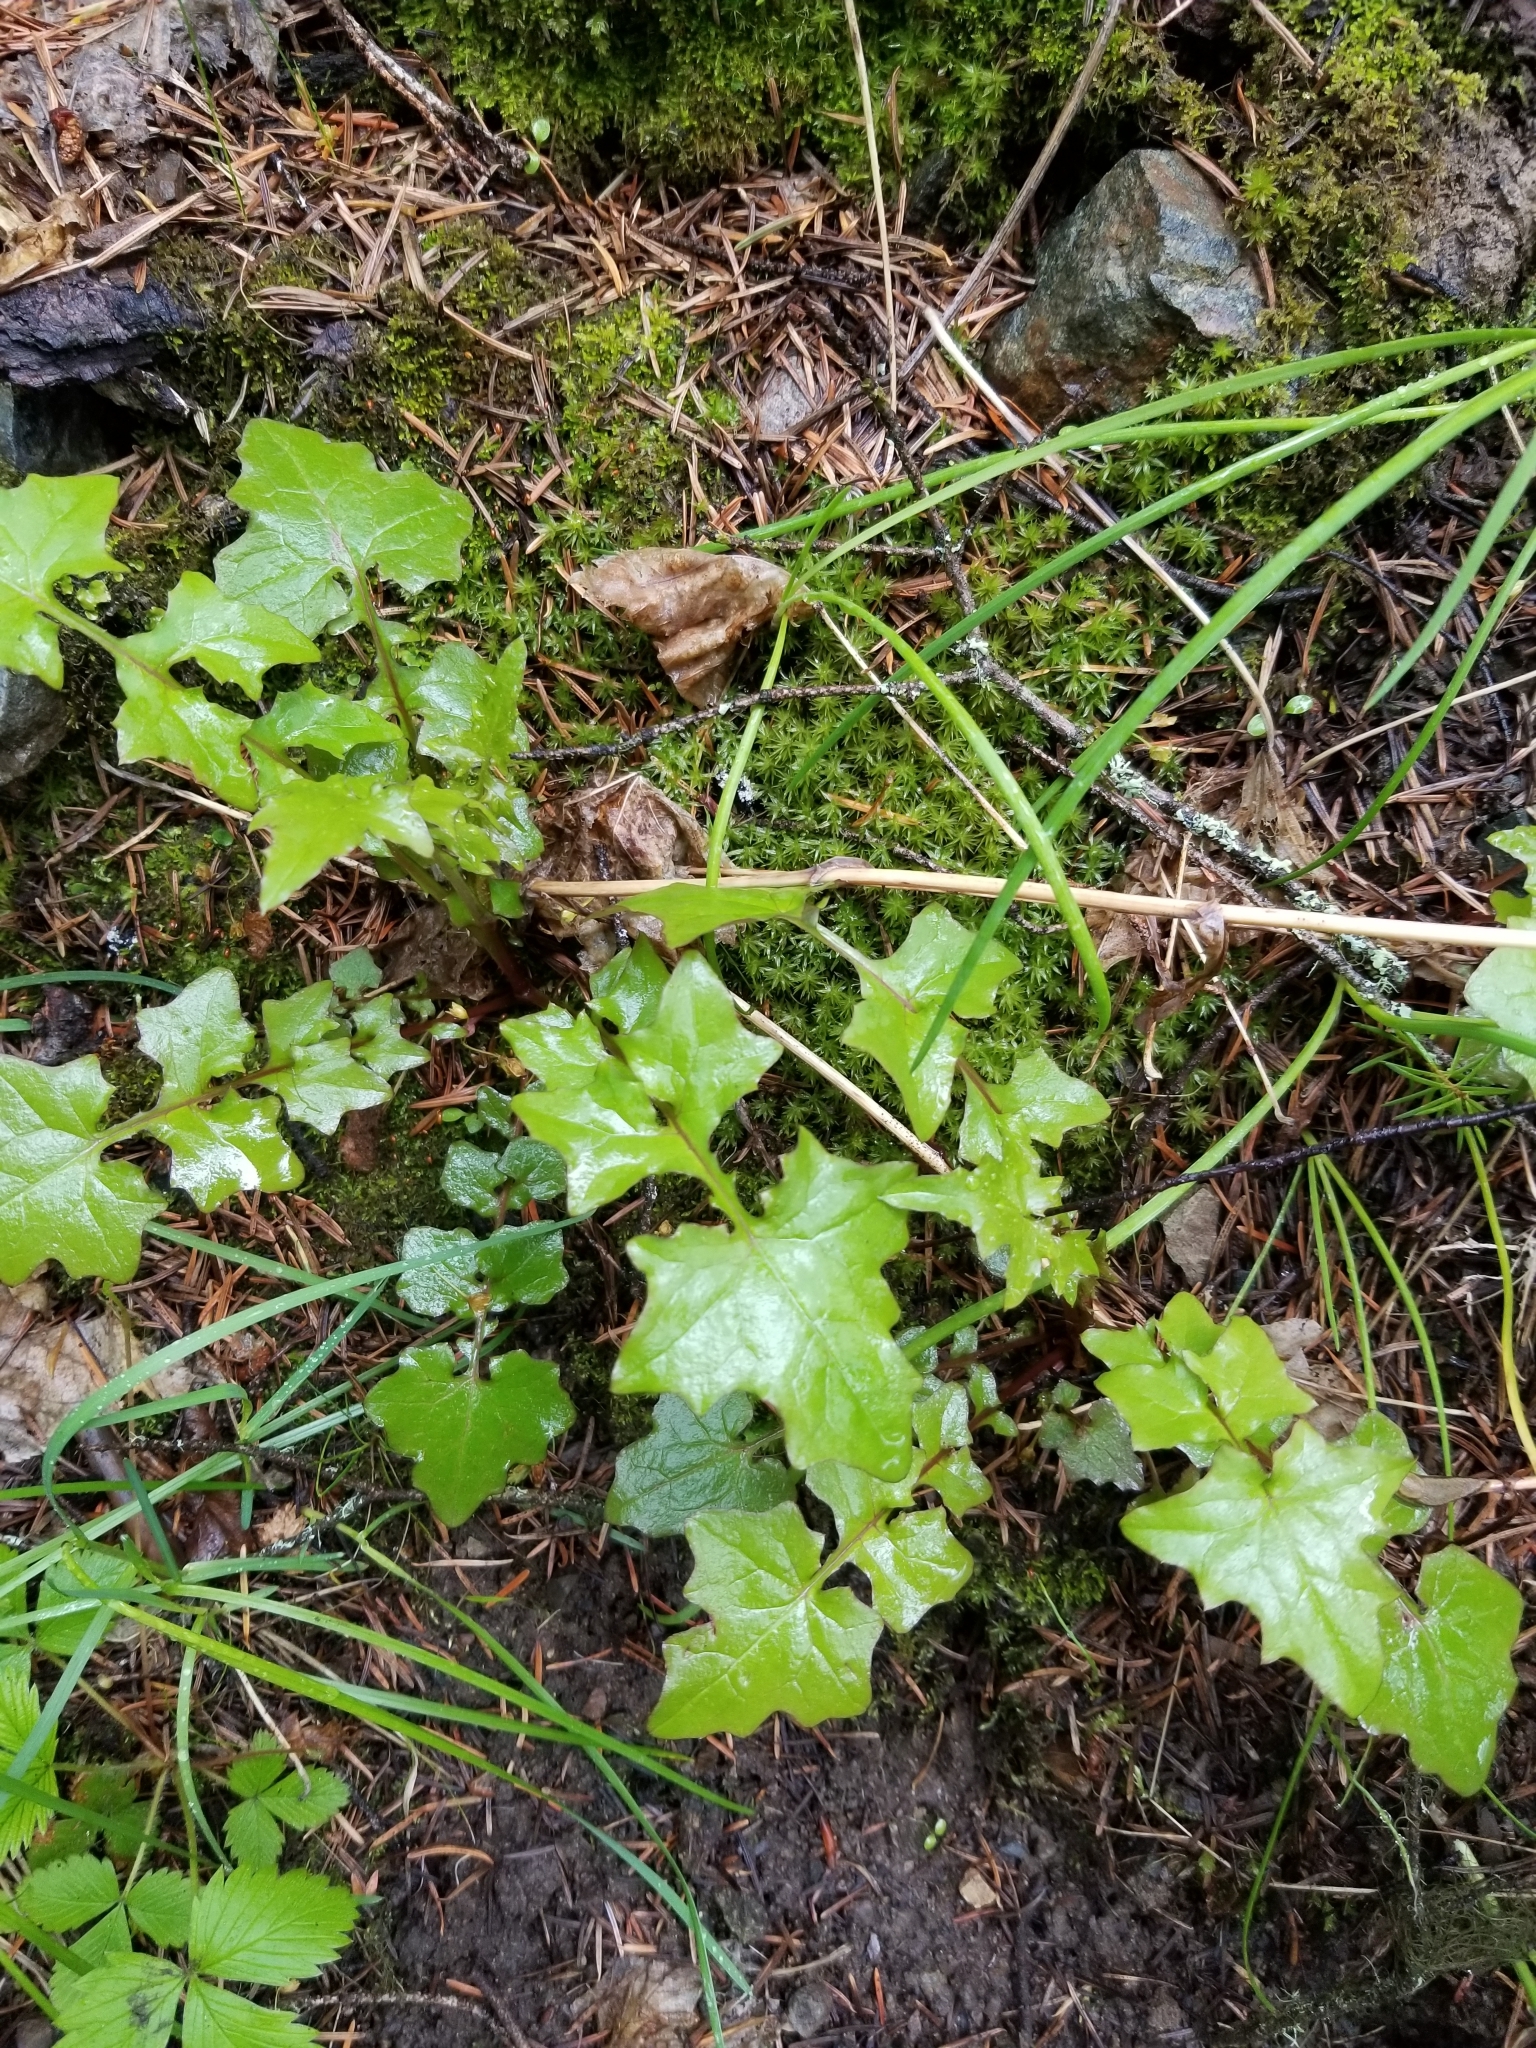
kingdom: Plantae
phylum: Tracheophyta
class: Magnoliopsida
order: Asterales
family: Asteraceae
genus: Mycelis
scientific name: Mycelis muralis
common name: Wall lettuce
